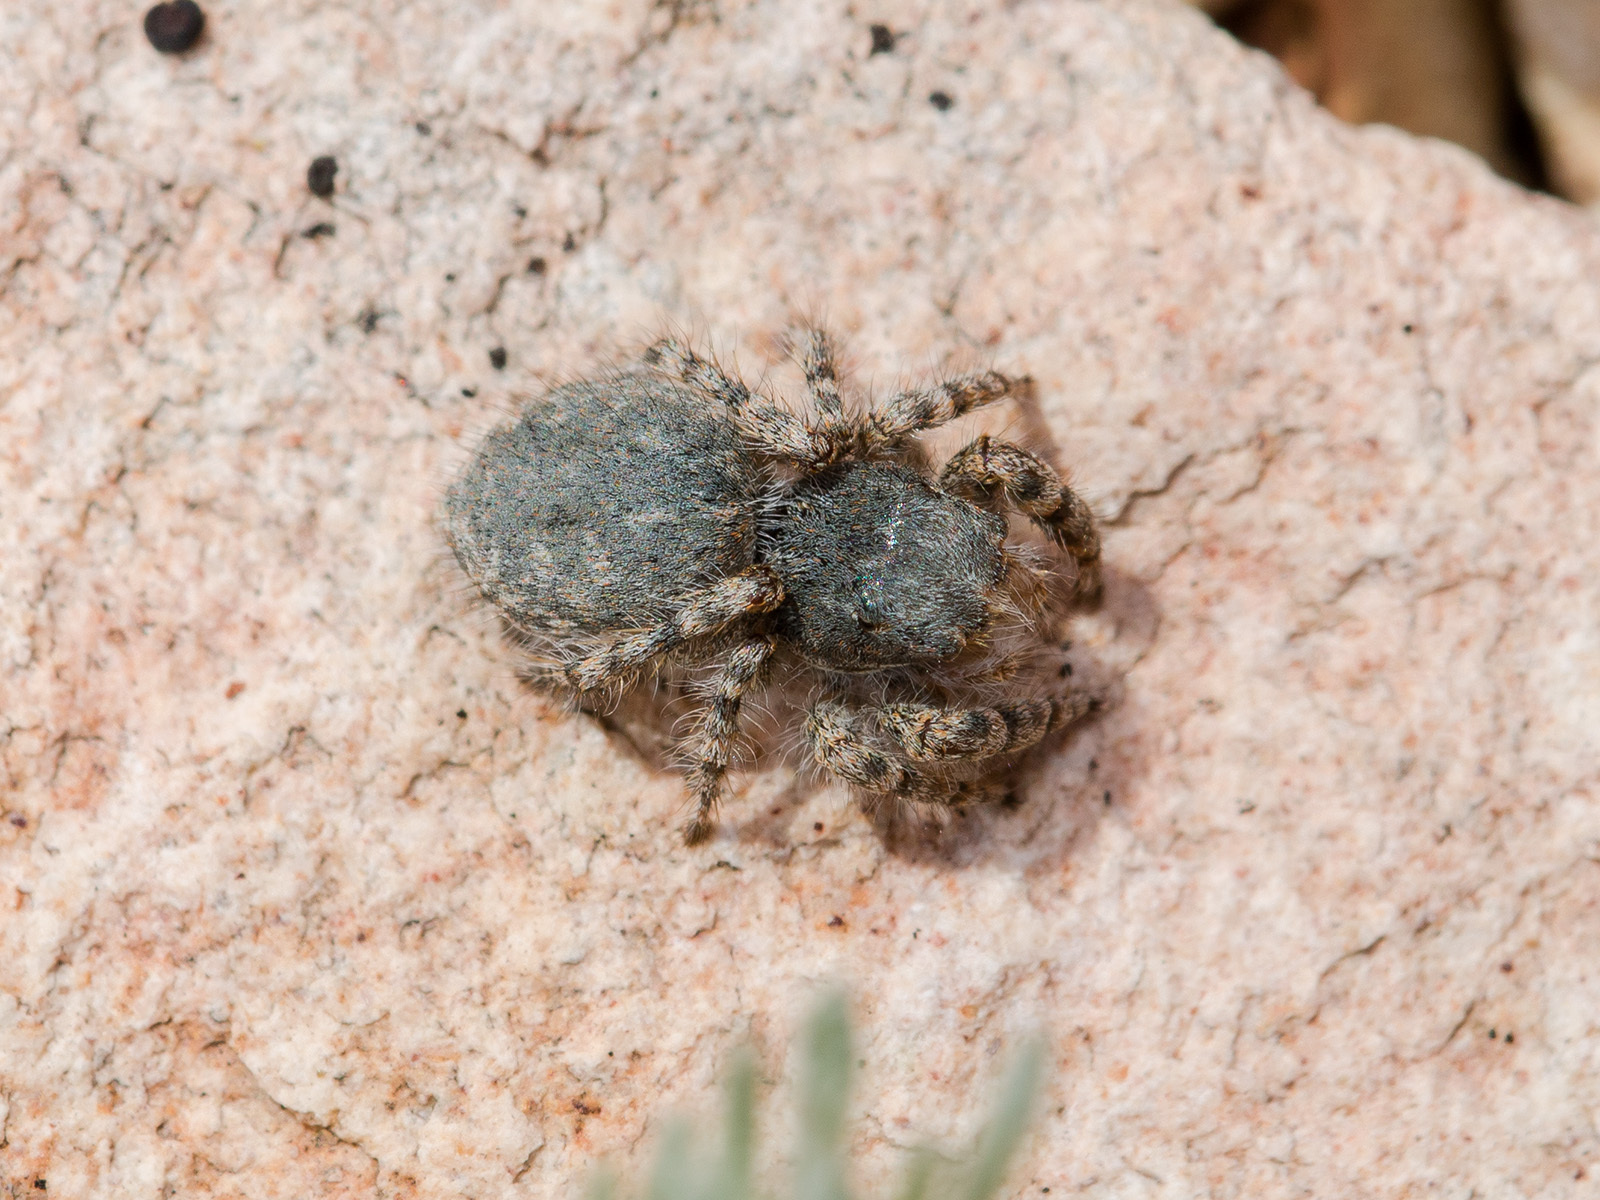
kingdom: Animalia
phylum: Arthropoda
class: Arachnida
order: Araneae
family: Salticidae
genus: Yllenus
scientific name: Yllenus charynensis
